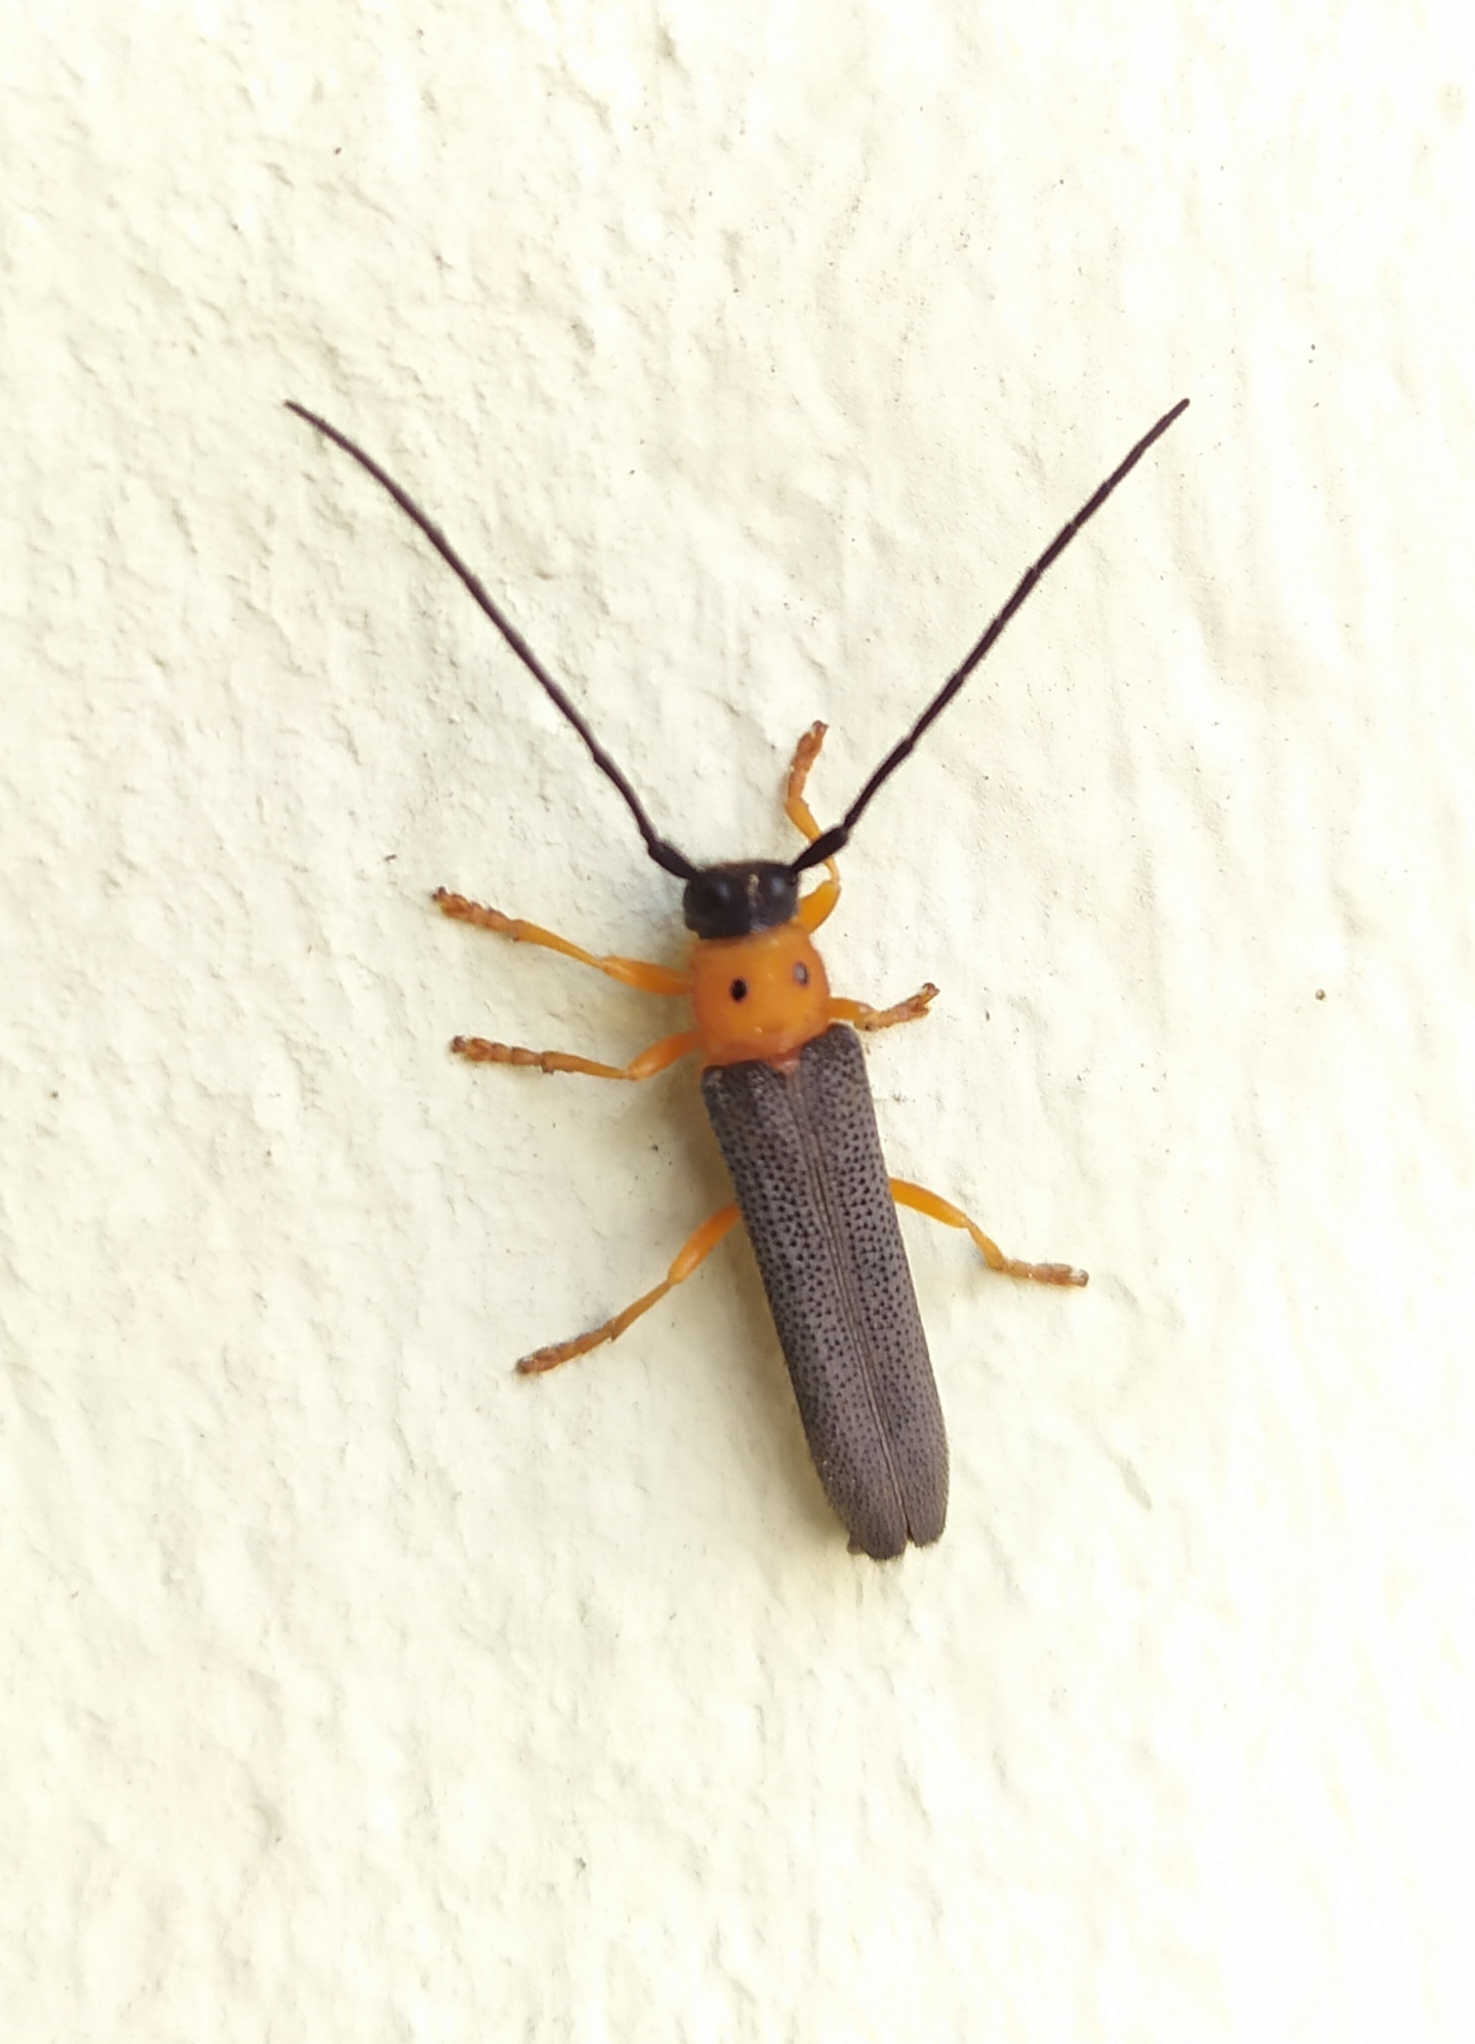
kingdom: Animalia
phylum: Arthropoda
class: Insecta
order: Coleoptera
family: Cerambycidae
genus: Oberea
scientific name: Oberea oculata
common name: Eyed longhorn beetle
